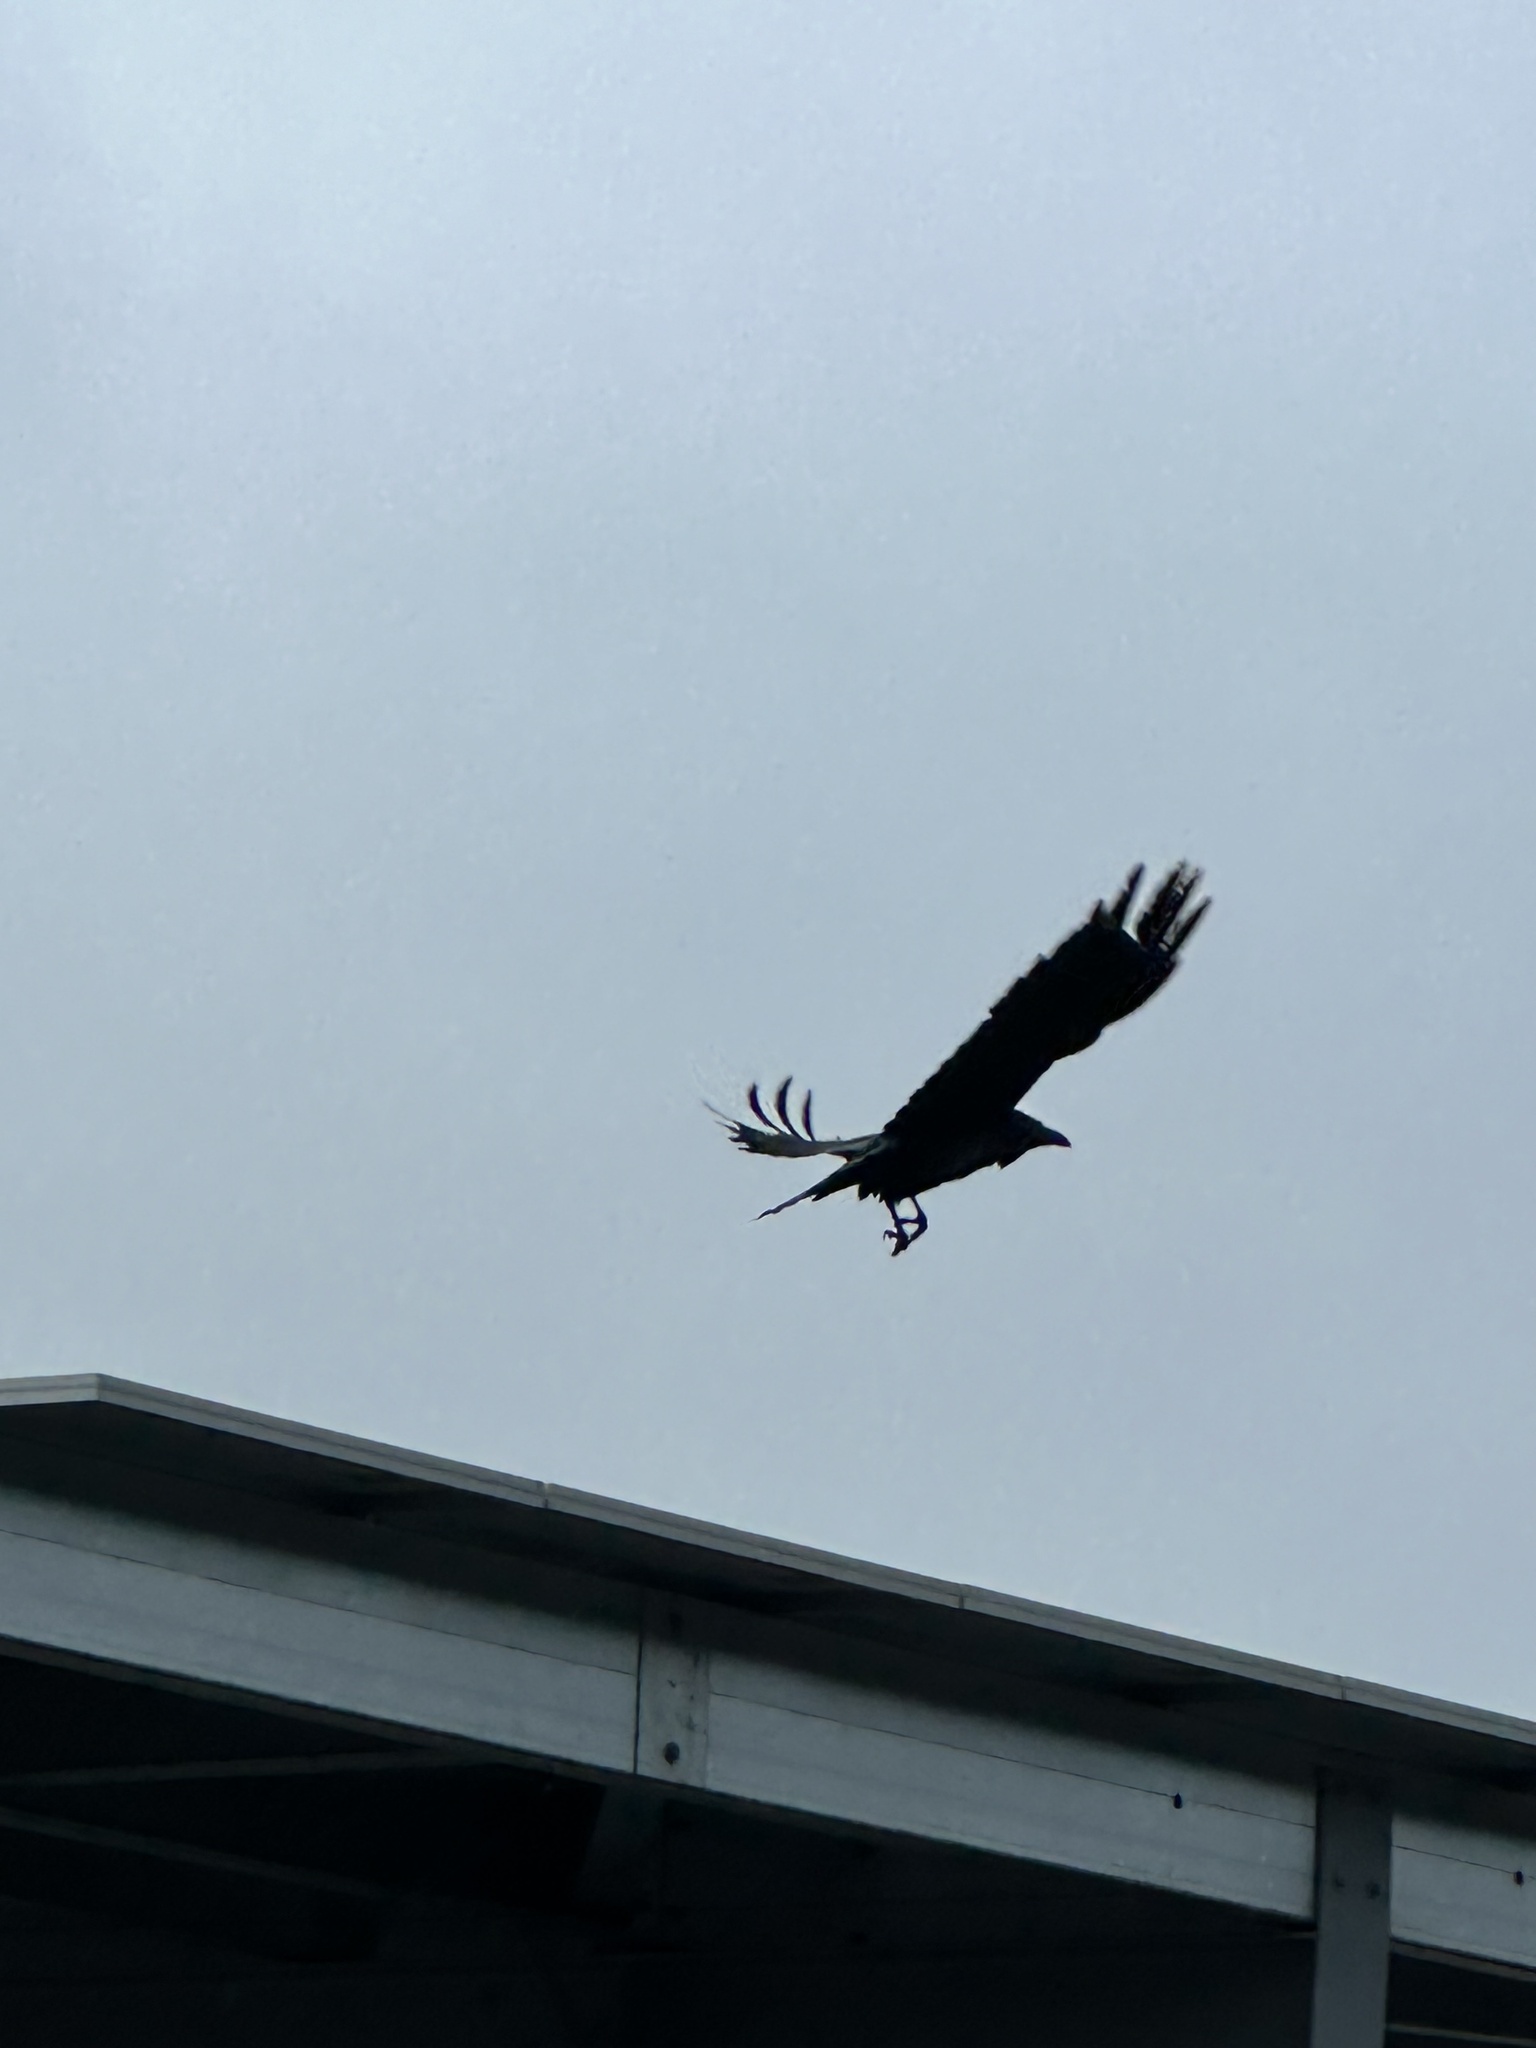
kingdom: Animalia
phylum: Chordata
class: Aves
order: Passeriformes
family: Corvidae
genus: Corvus
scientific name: Corvus corax
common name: Common raven
